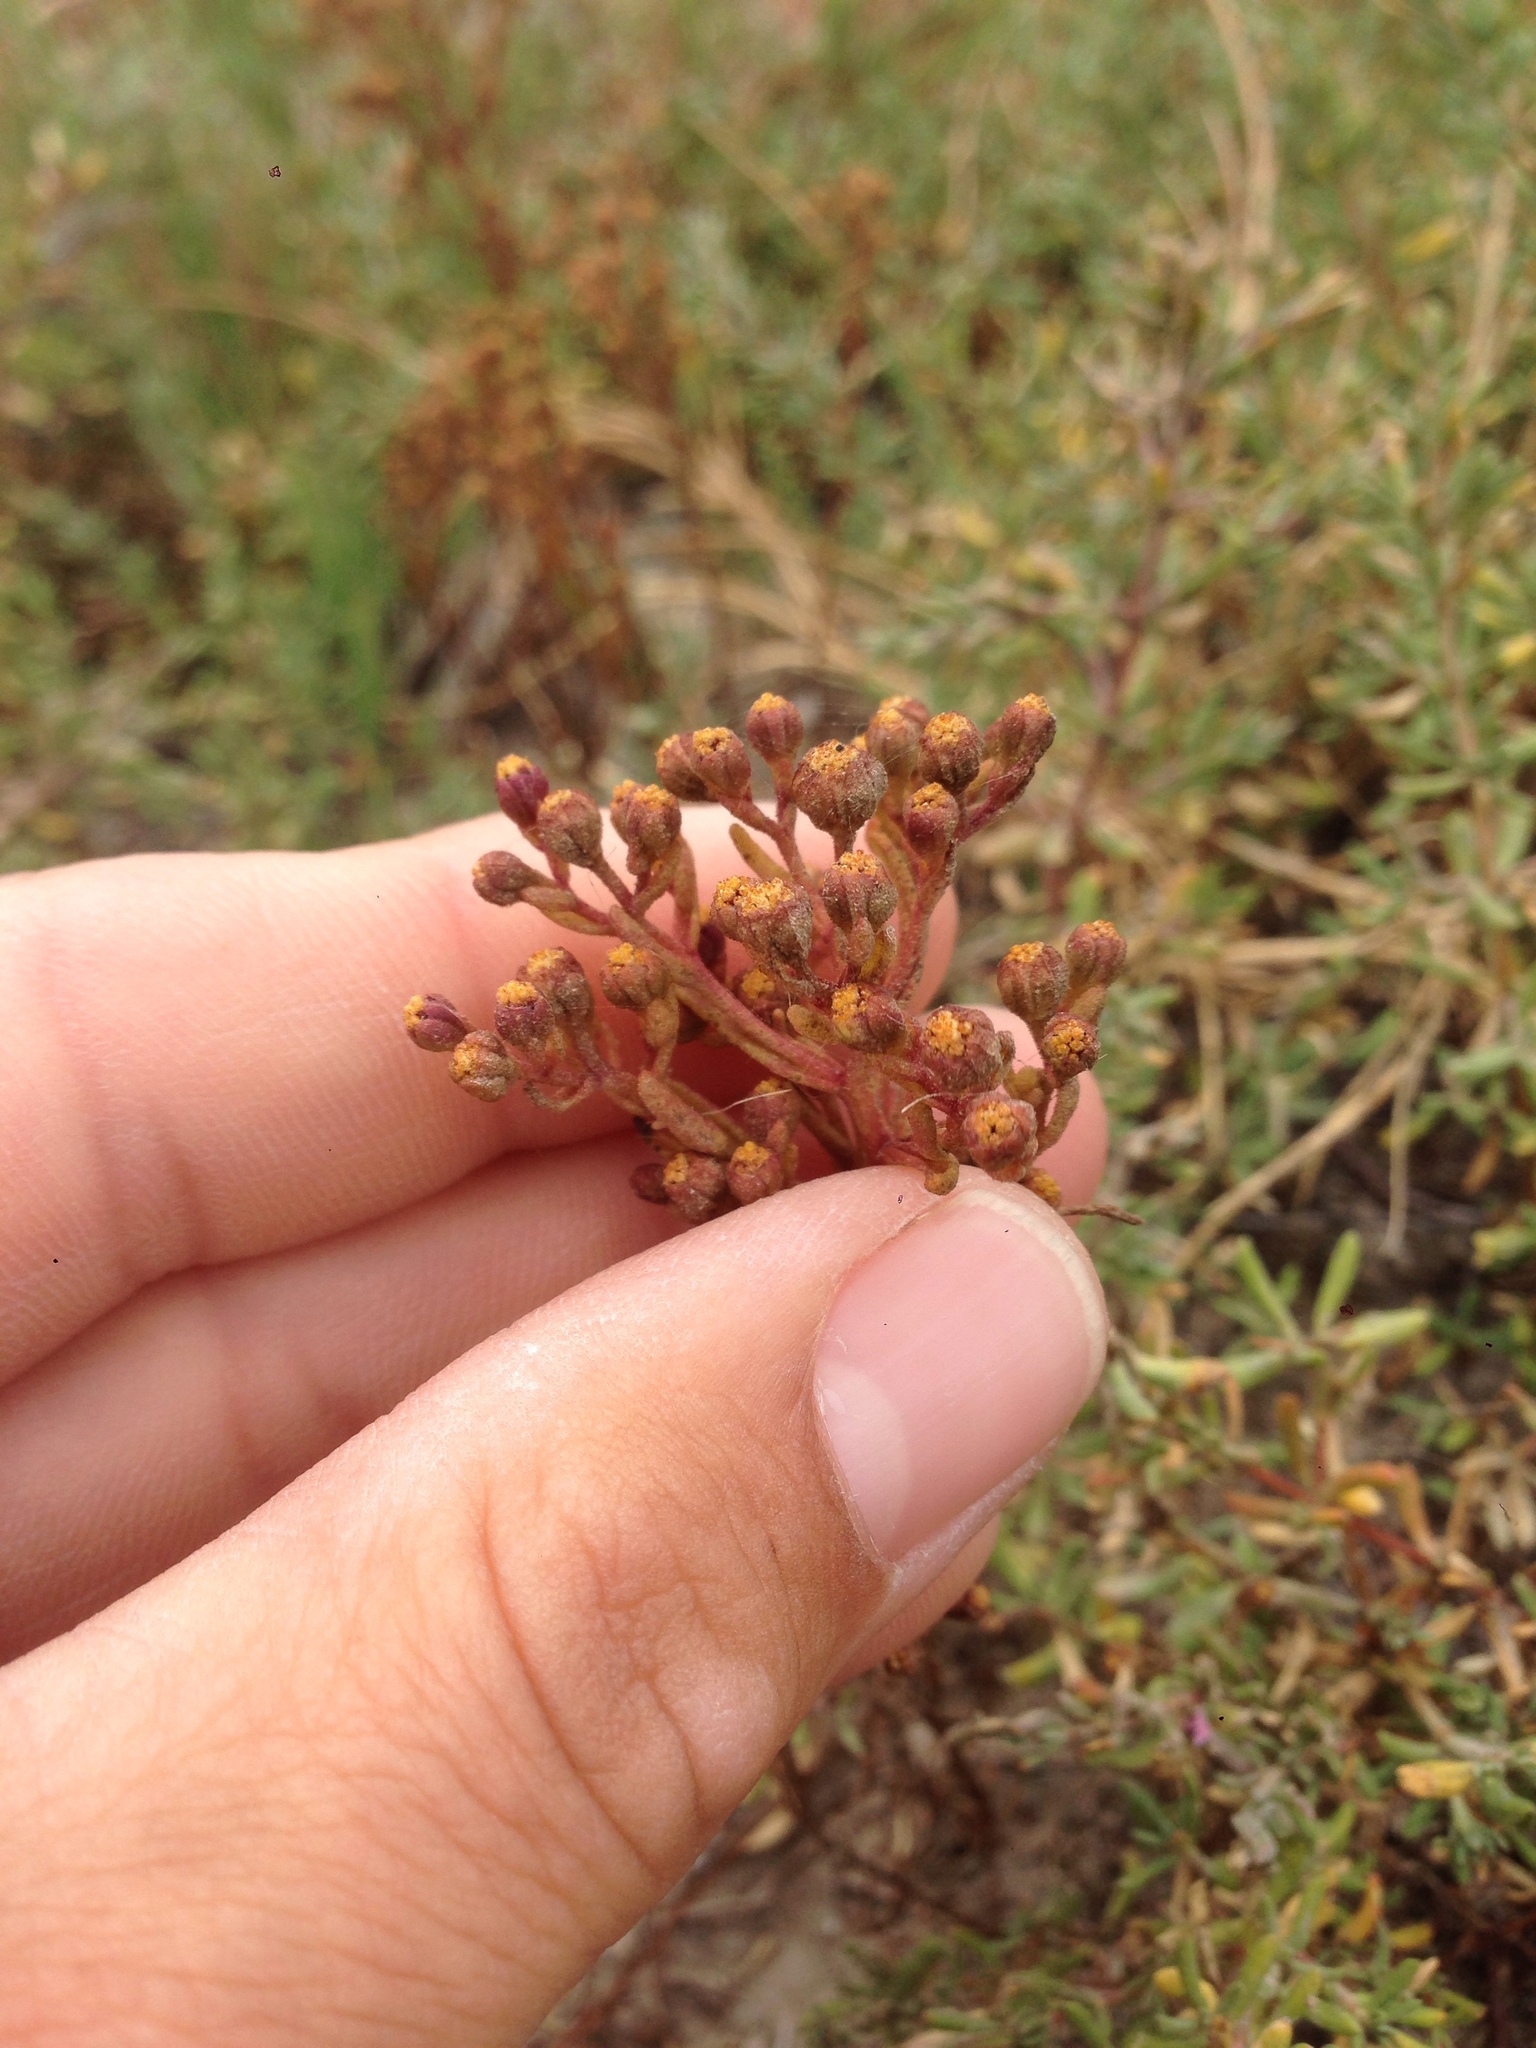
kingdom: Plantae
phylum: Tracheophyta
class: Magnoliopsida
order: Asterales
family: Asteraceae
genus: Amblyopappus
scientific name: Amblyopappus pusillus
